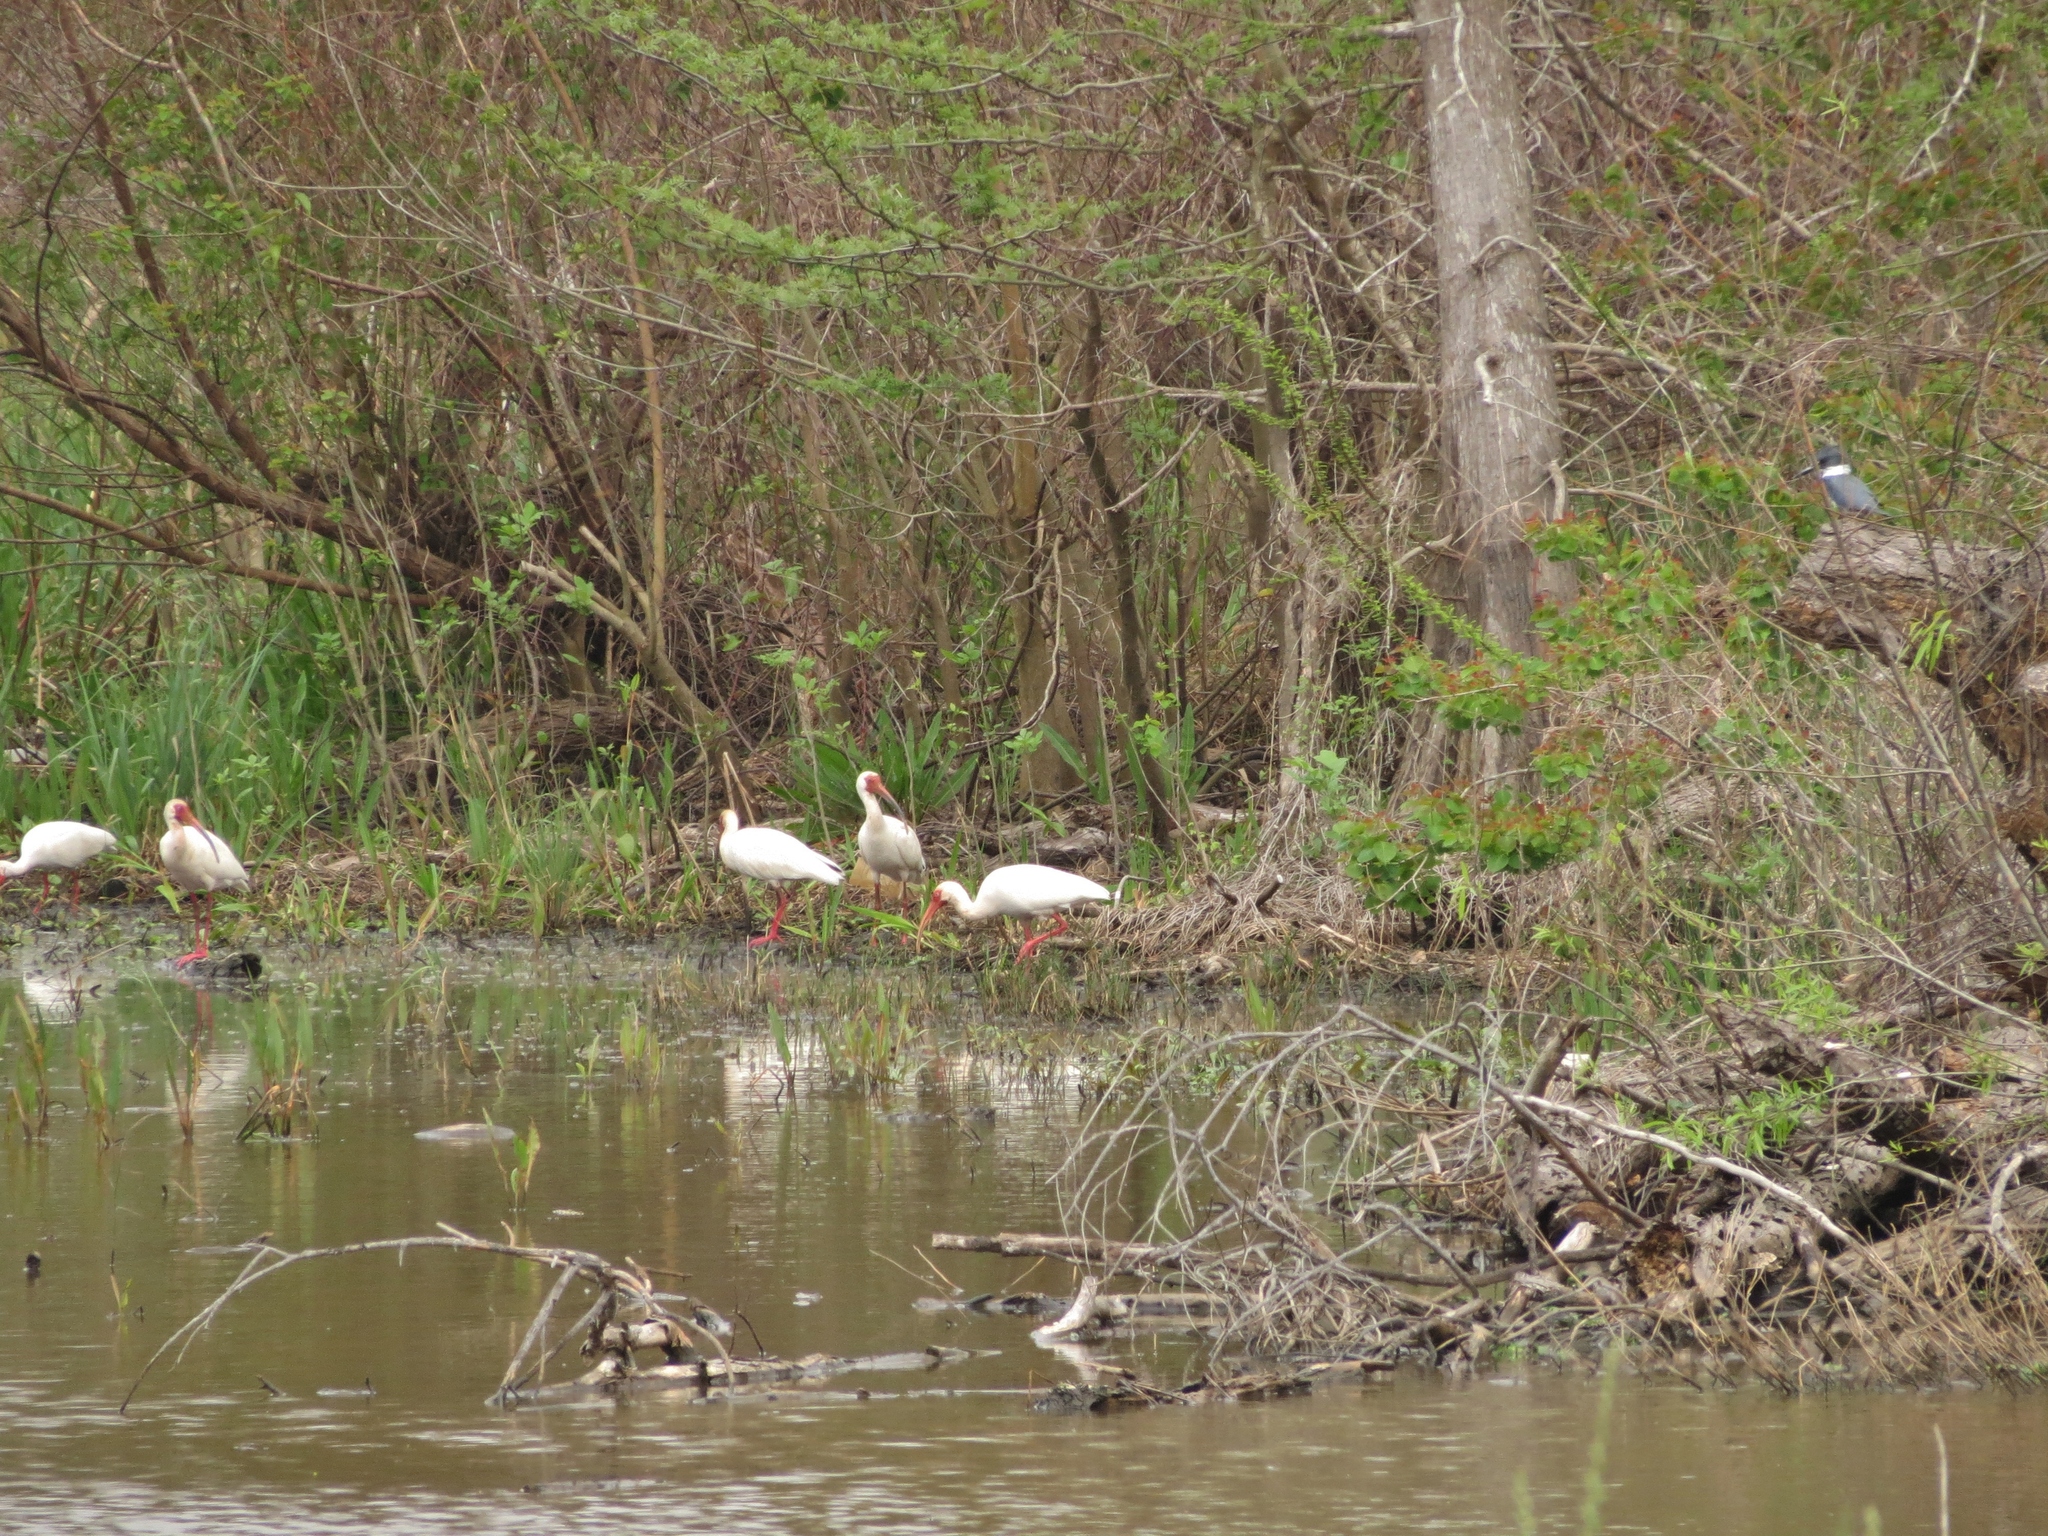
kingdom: Animalia
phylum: Chordata
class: Aves
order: Pelecaniformes
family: Threskiornithidae
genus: Eudocimus
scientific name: Eudocimus albus
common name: White ibis
